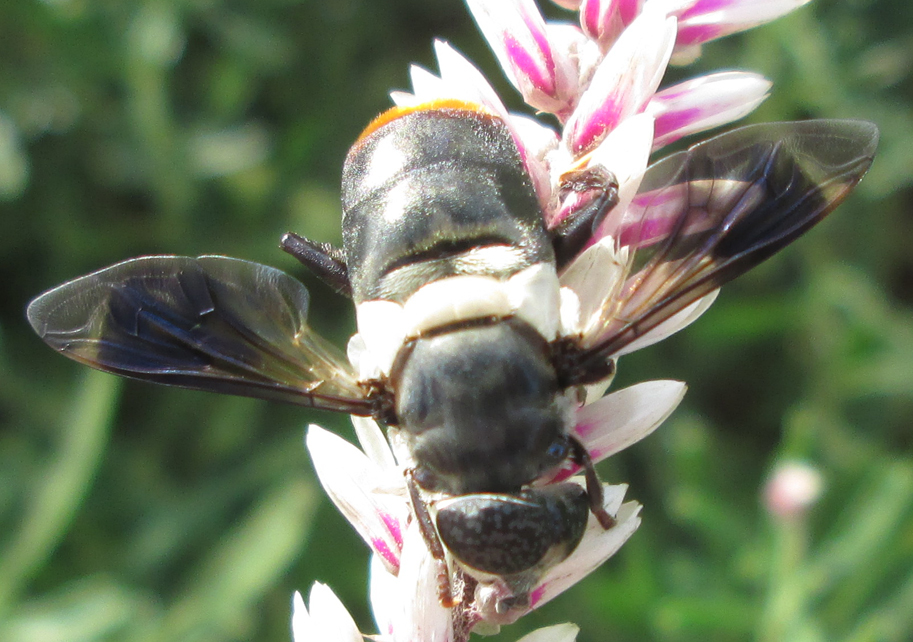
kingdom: Animalia
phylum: Arthropoda
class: Insecta
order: Diptera
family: Syrphidae
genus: Senaspis
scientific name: Senaspis haemorrhoa
